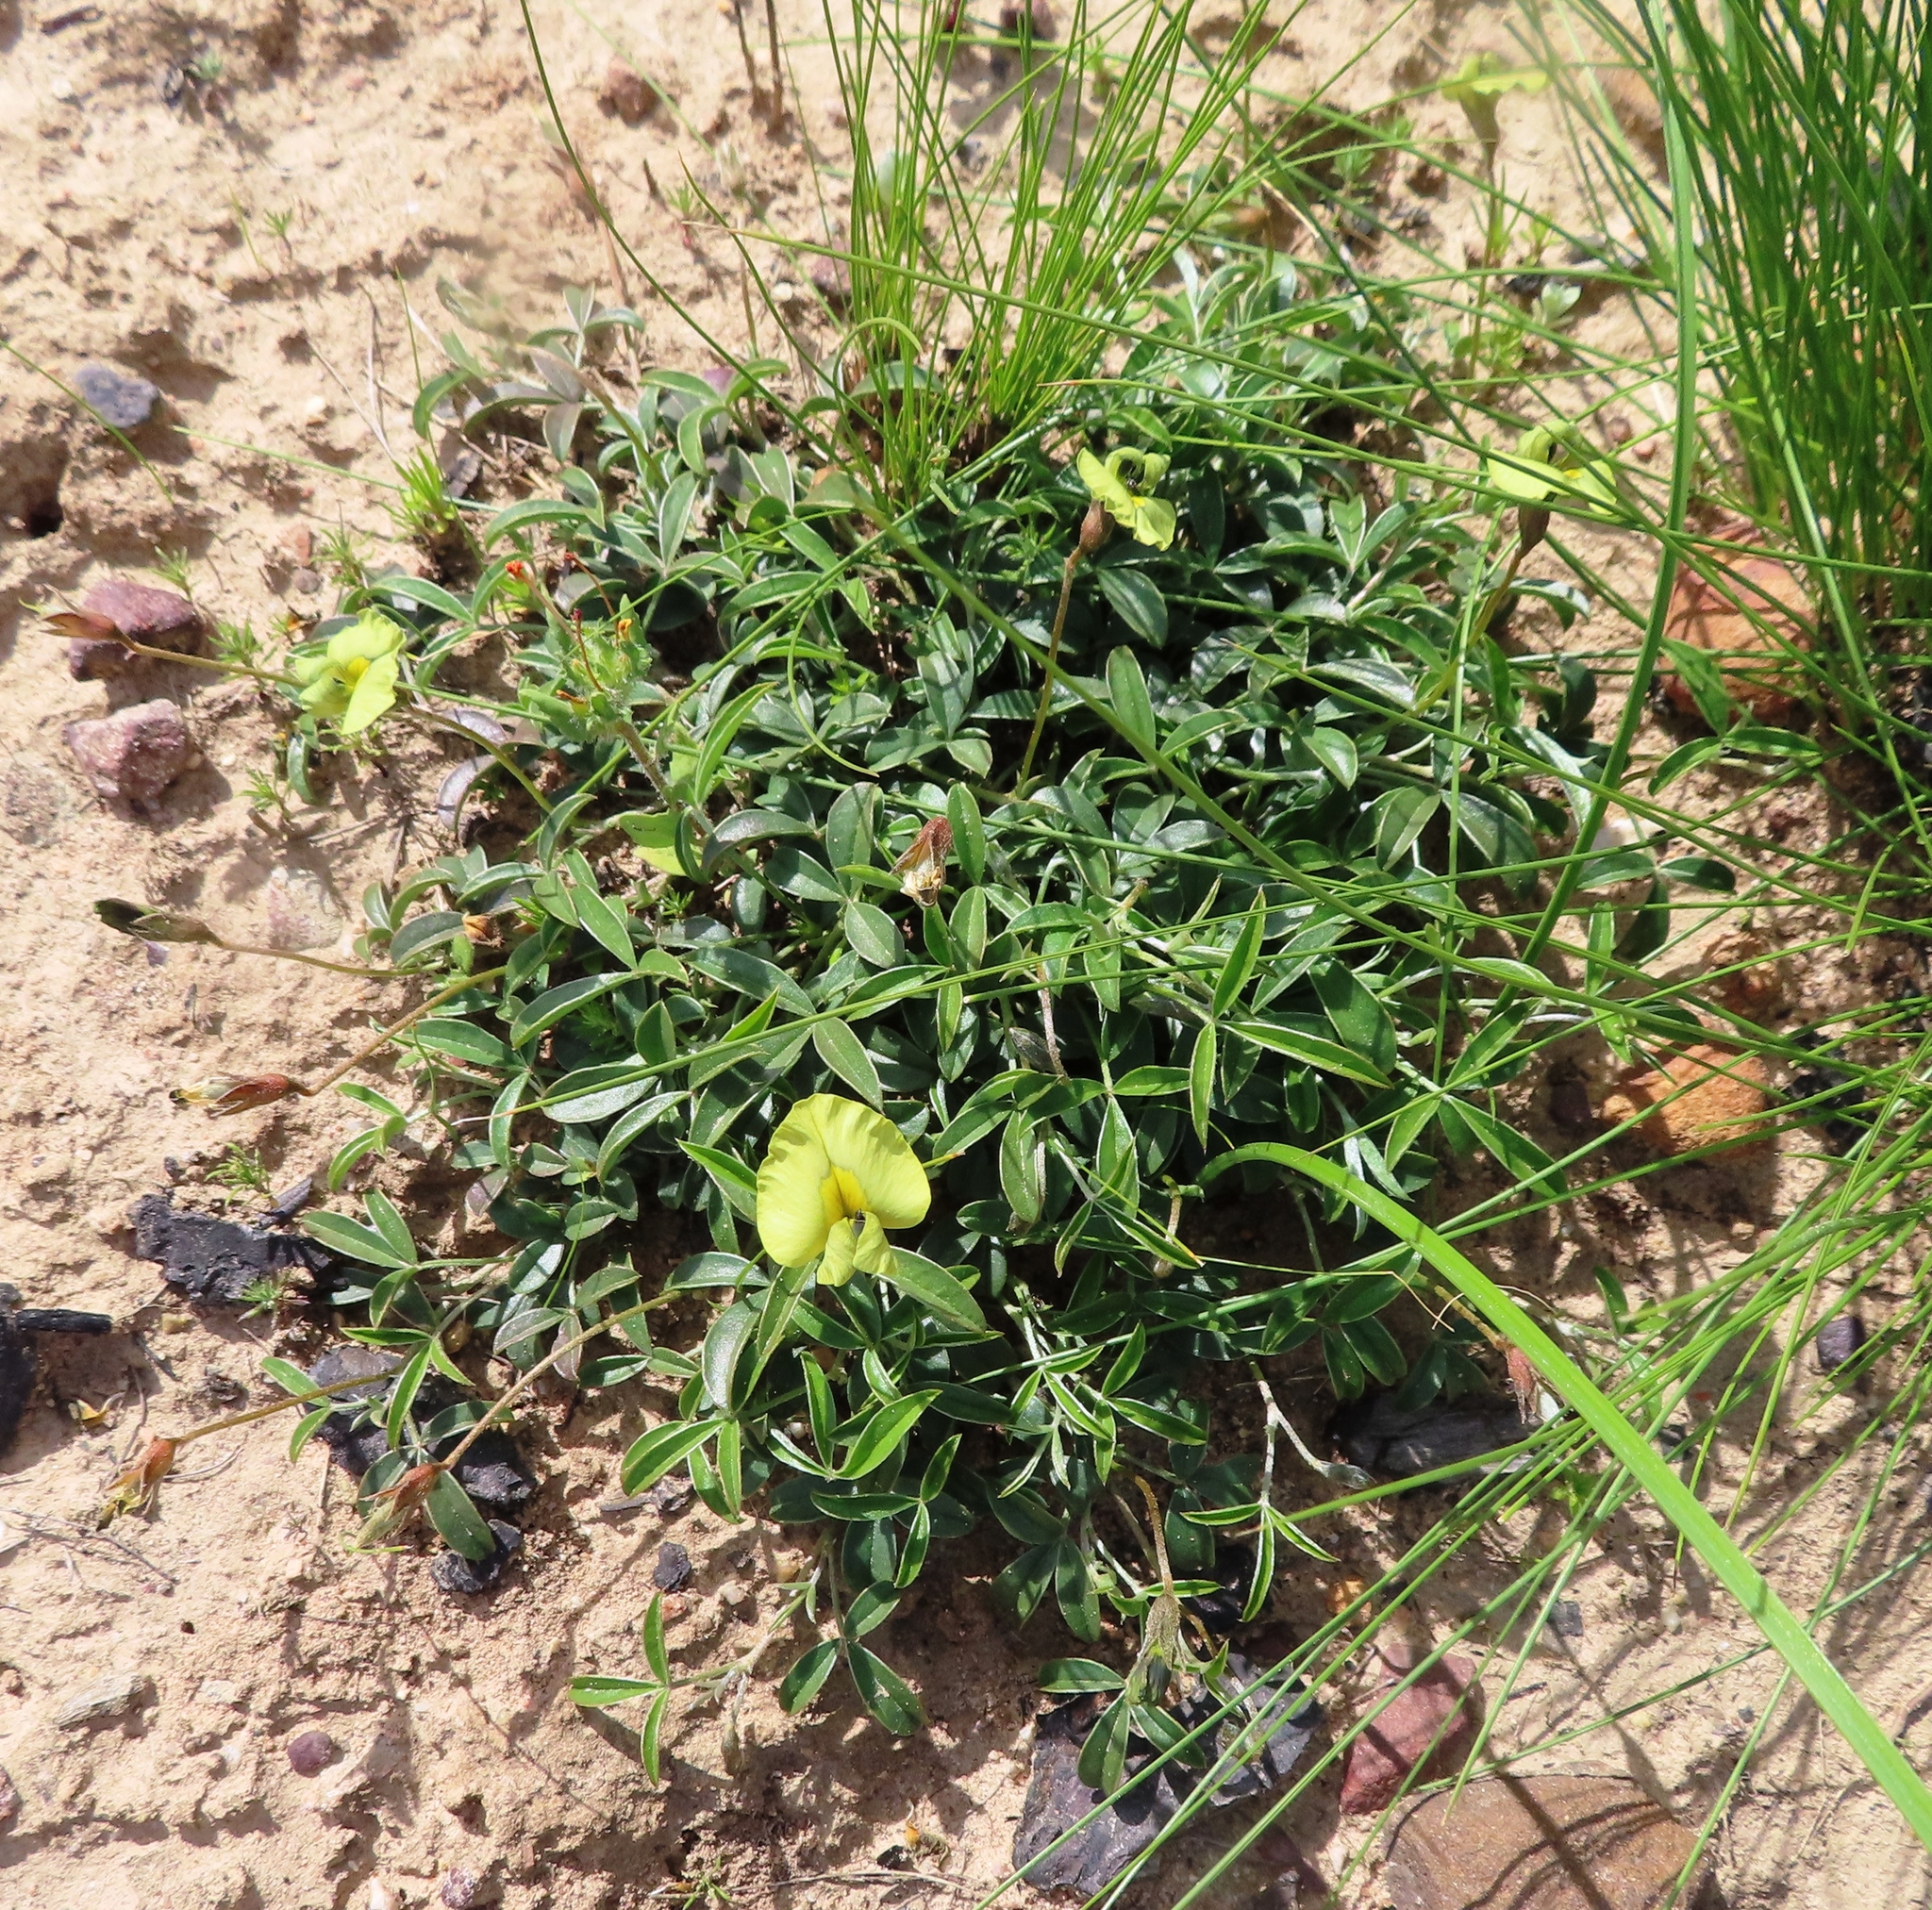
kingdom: Plantae
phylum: Tracheophyta
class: Magnoliopsida
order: Fabales
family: Fabaceae
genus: Lotononis
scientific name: Lotononis prostrata
